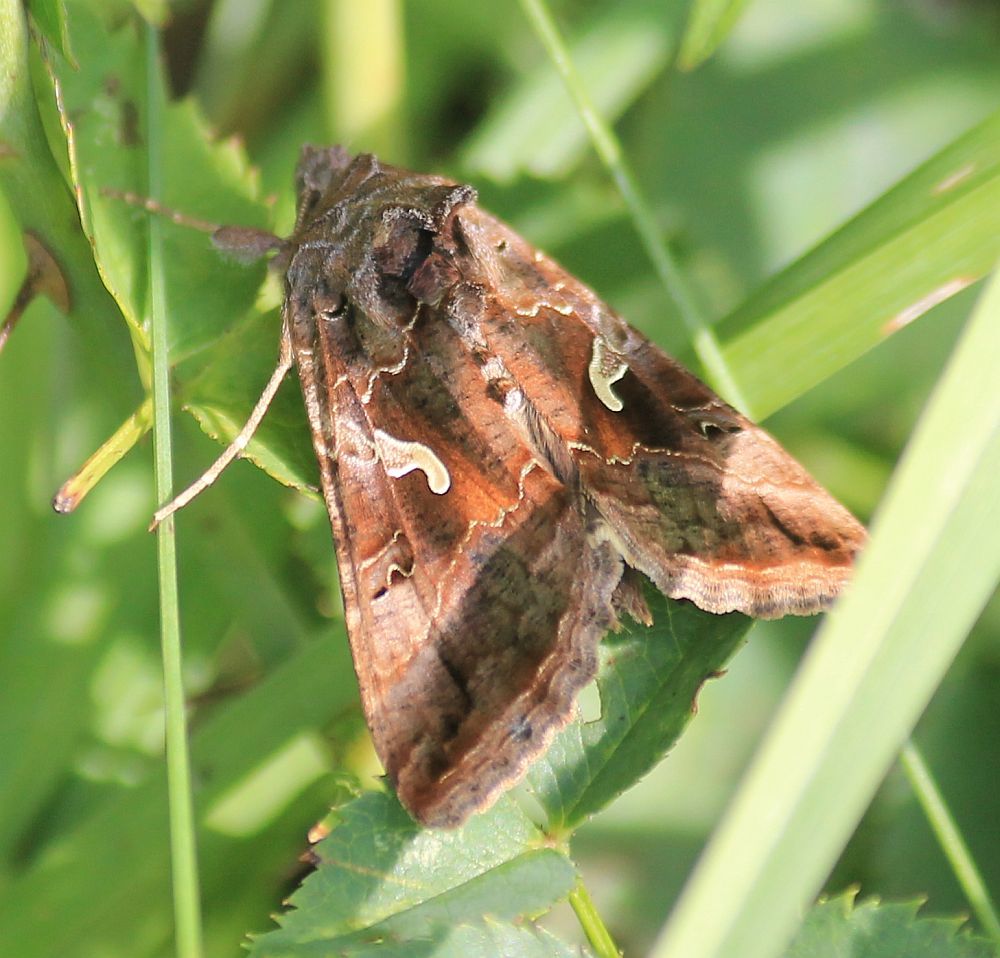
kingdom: Animalia
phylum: Arthropoda
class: Insecta
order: Lepidoptera
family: Noctuidae
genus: Autographa
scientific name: Autographa gamma
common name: Silver y
